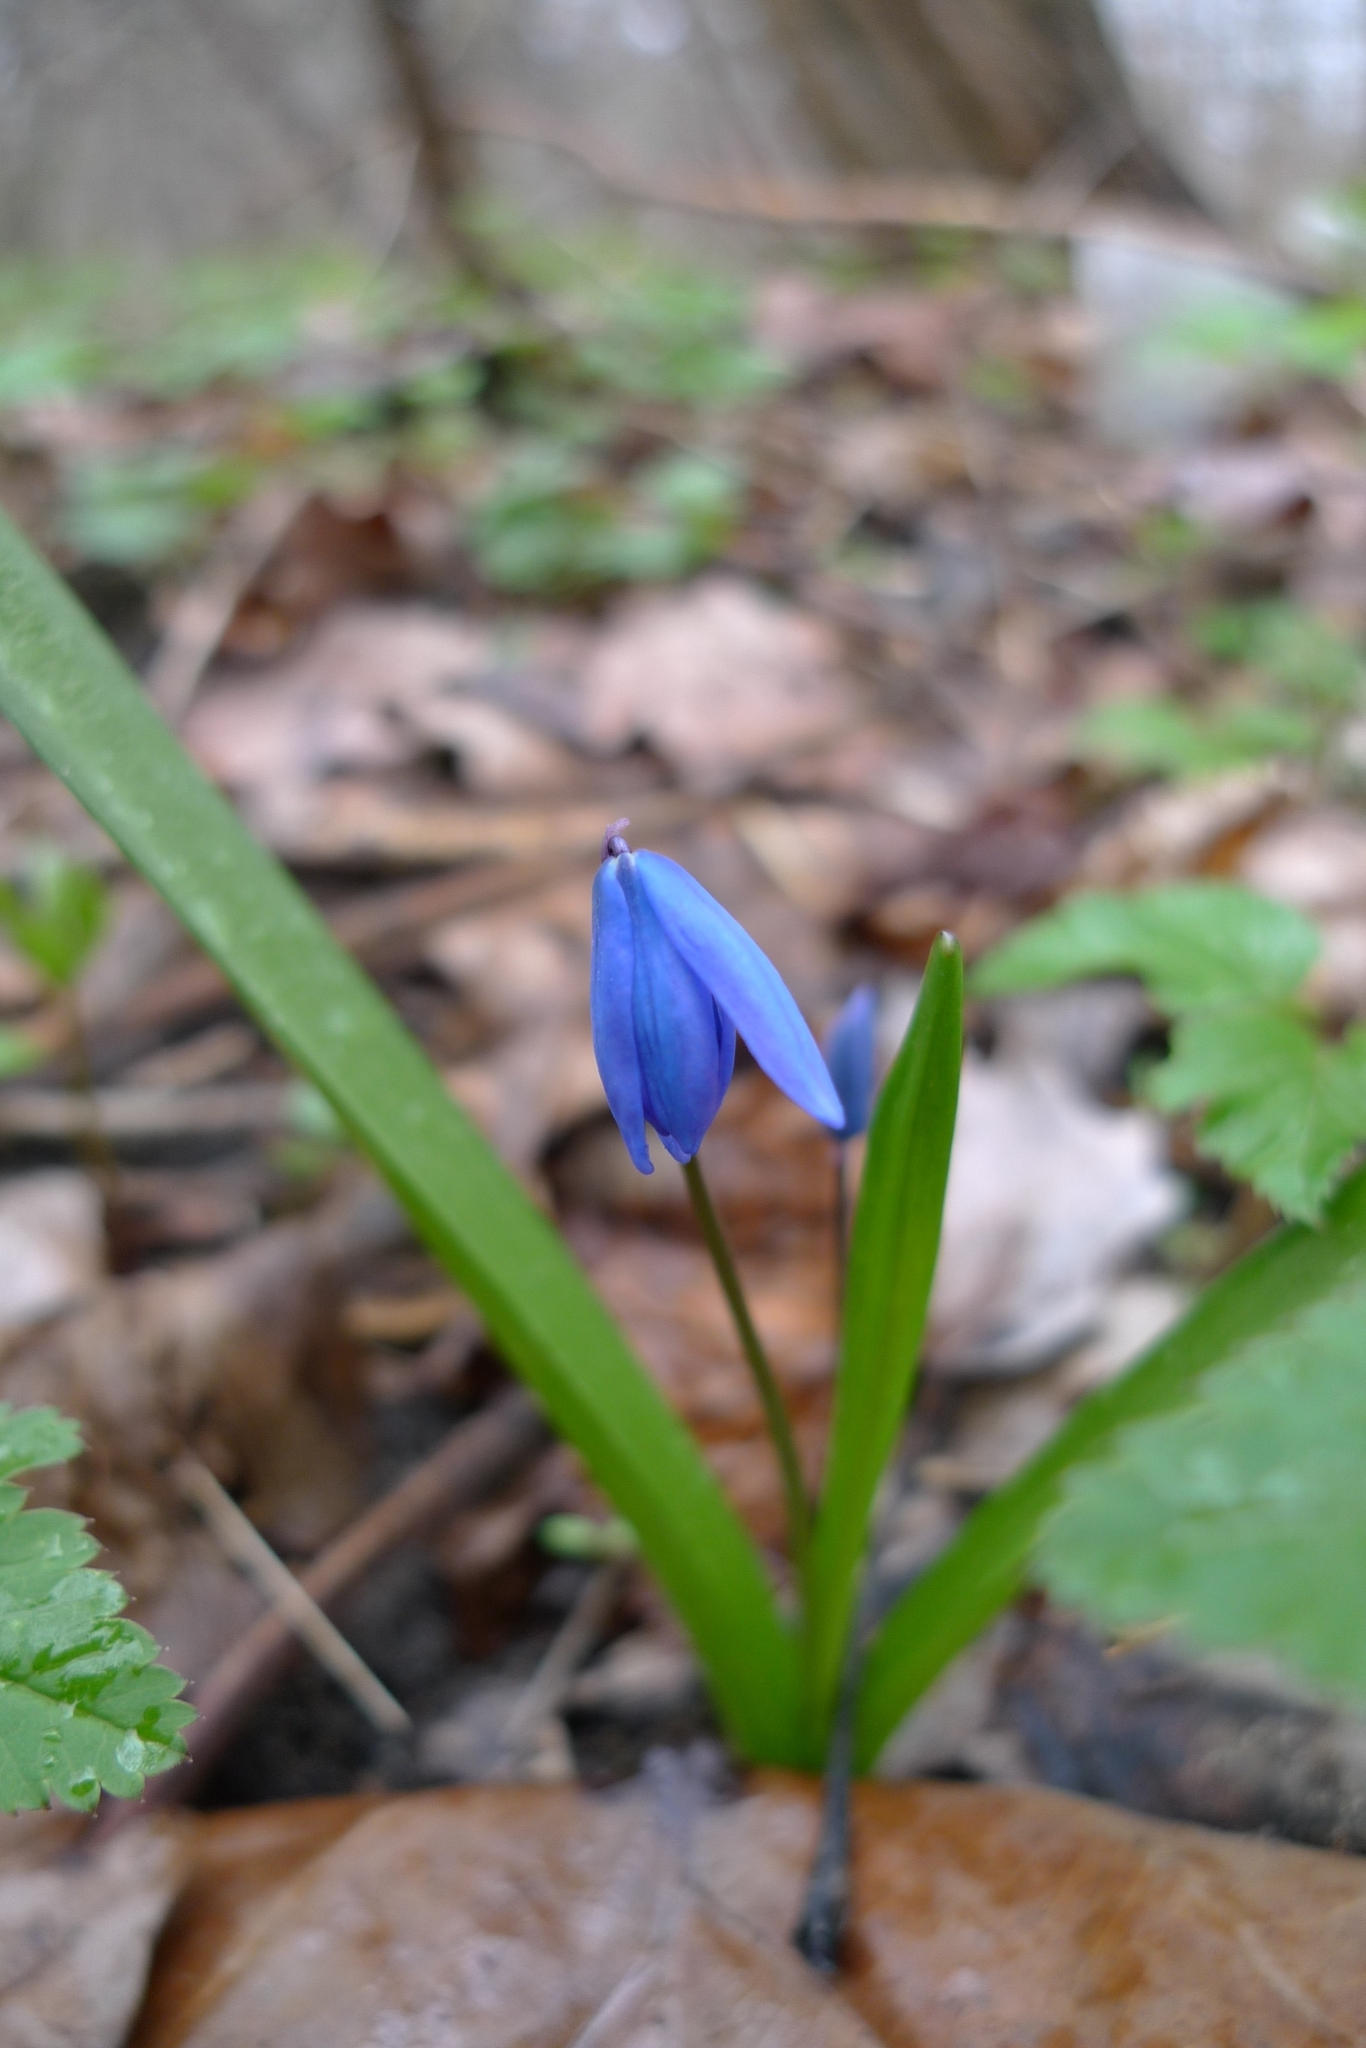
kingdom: Plantae
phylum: Tracheophyta
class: Liliopsida
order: Asparagales
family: Asparagaceae
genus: Scilla
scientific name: Scilla siberica
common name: Siberian squill
